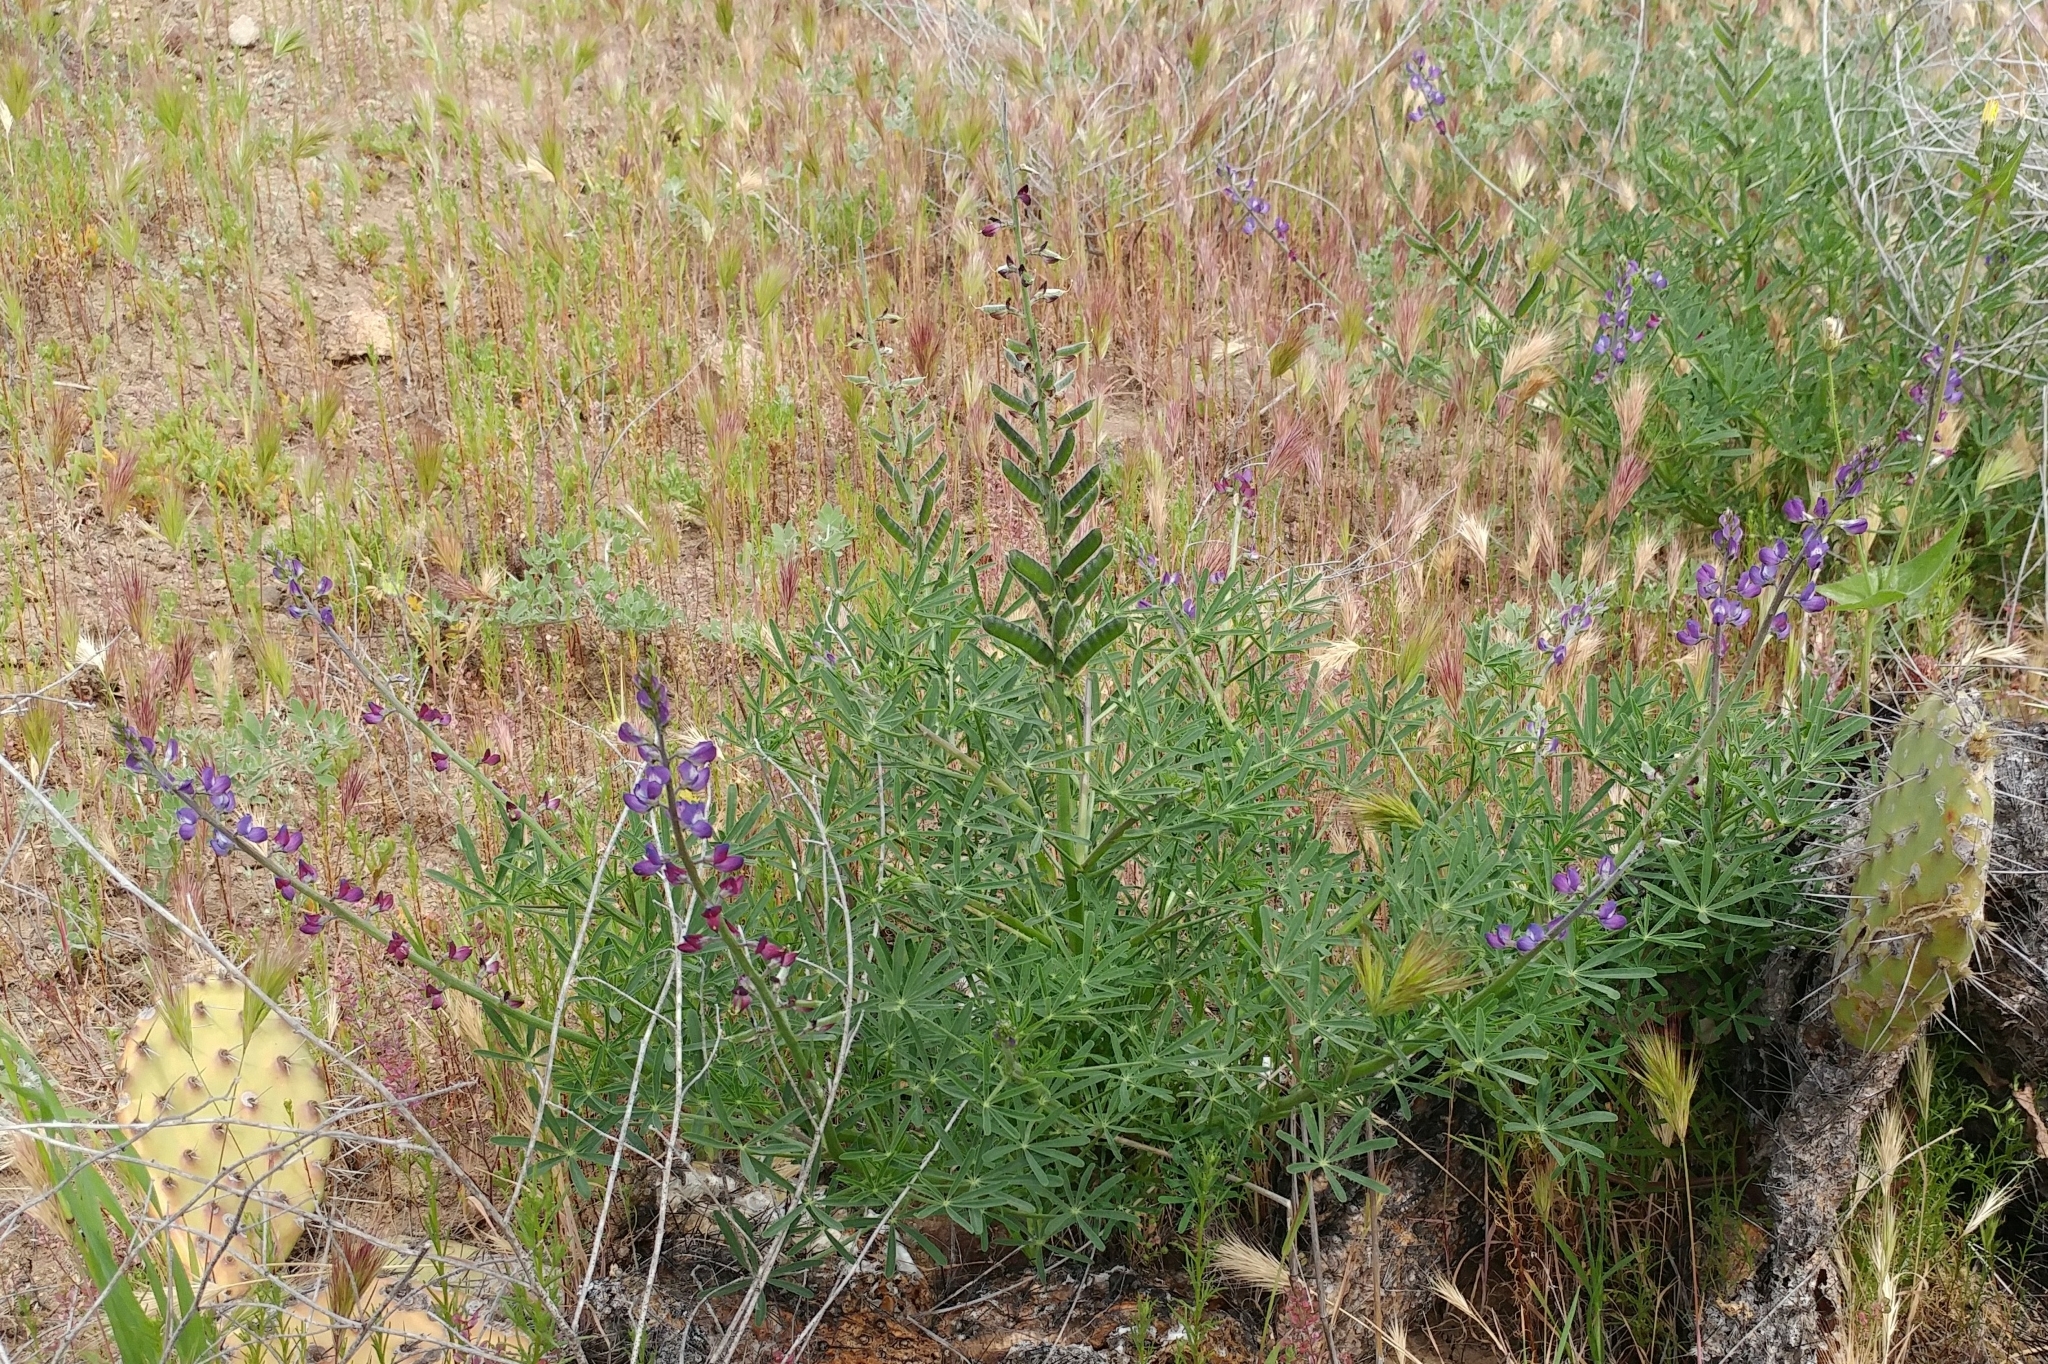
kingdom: Plantae
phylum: Tracheophyta
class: Magnoliopsida
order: Fabales
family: Fabaceae
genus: Lupinus
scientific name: Lupinus truncatus
